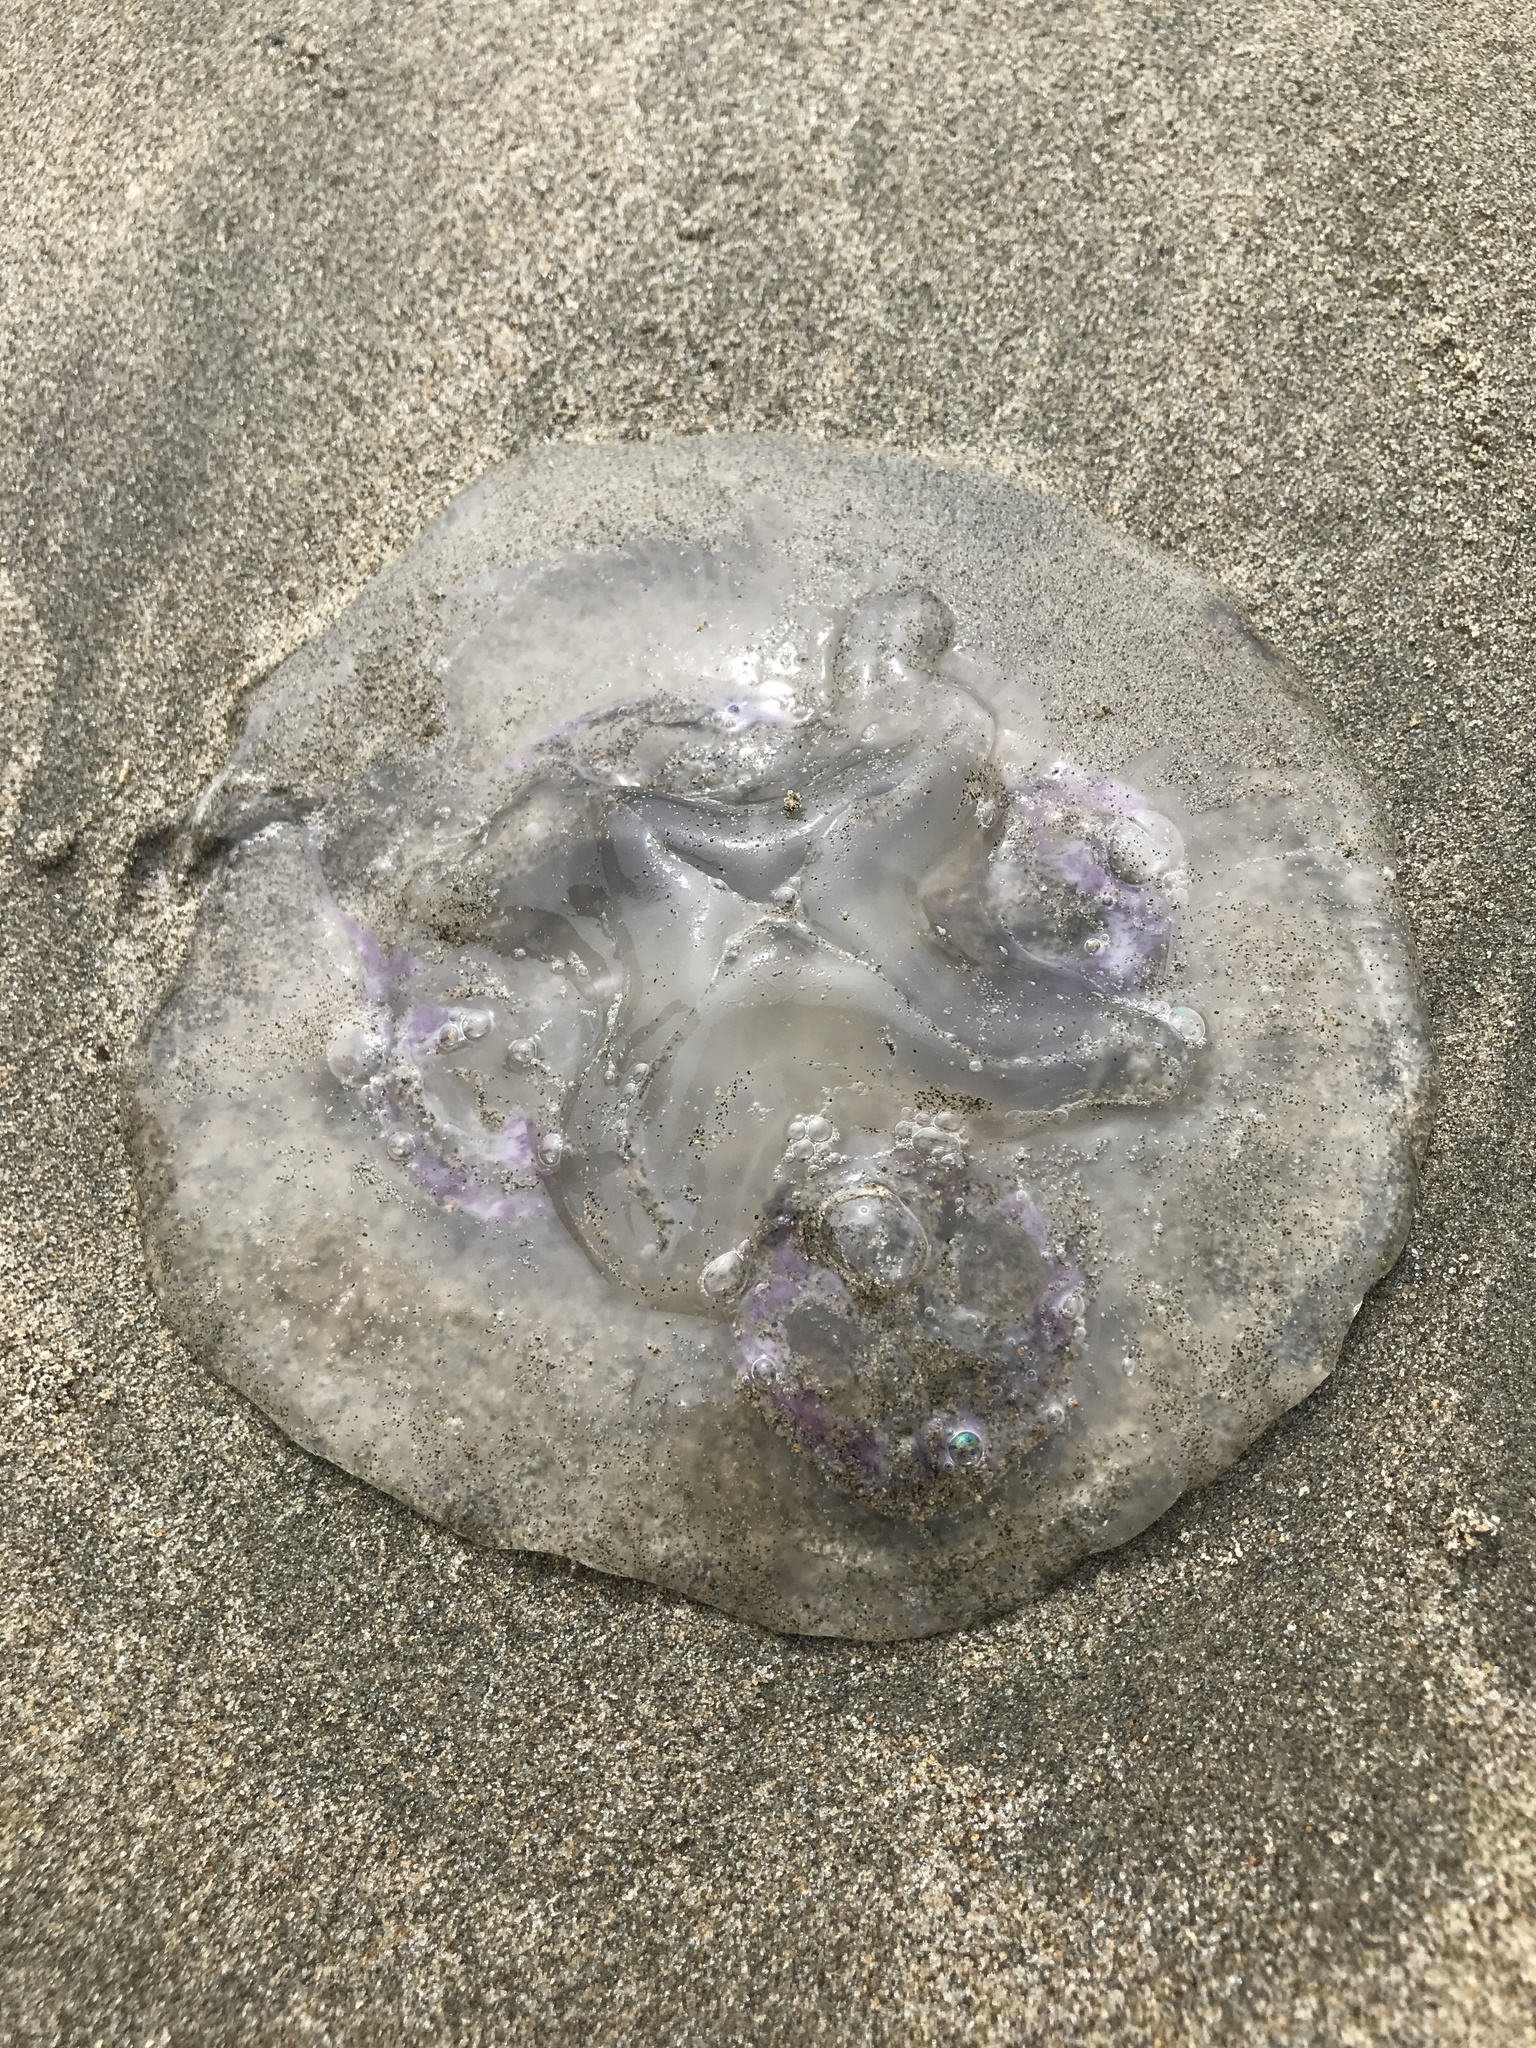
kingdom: Animalia
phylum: Cnidaria
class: Scyphozoa
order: Semaeostomeae
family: Ulmaridae
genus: Aurelia
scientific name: Aurelia labiata
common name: Pacific moon jelly
